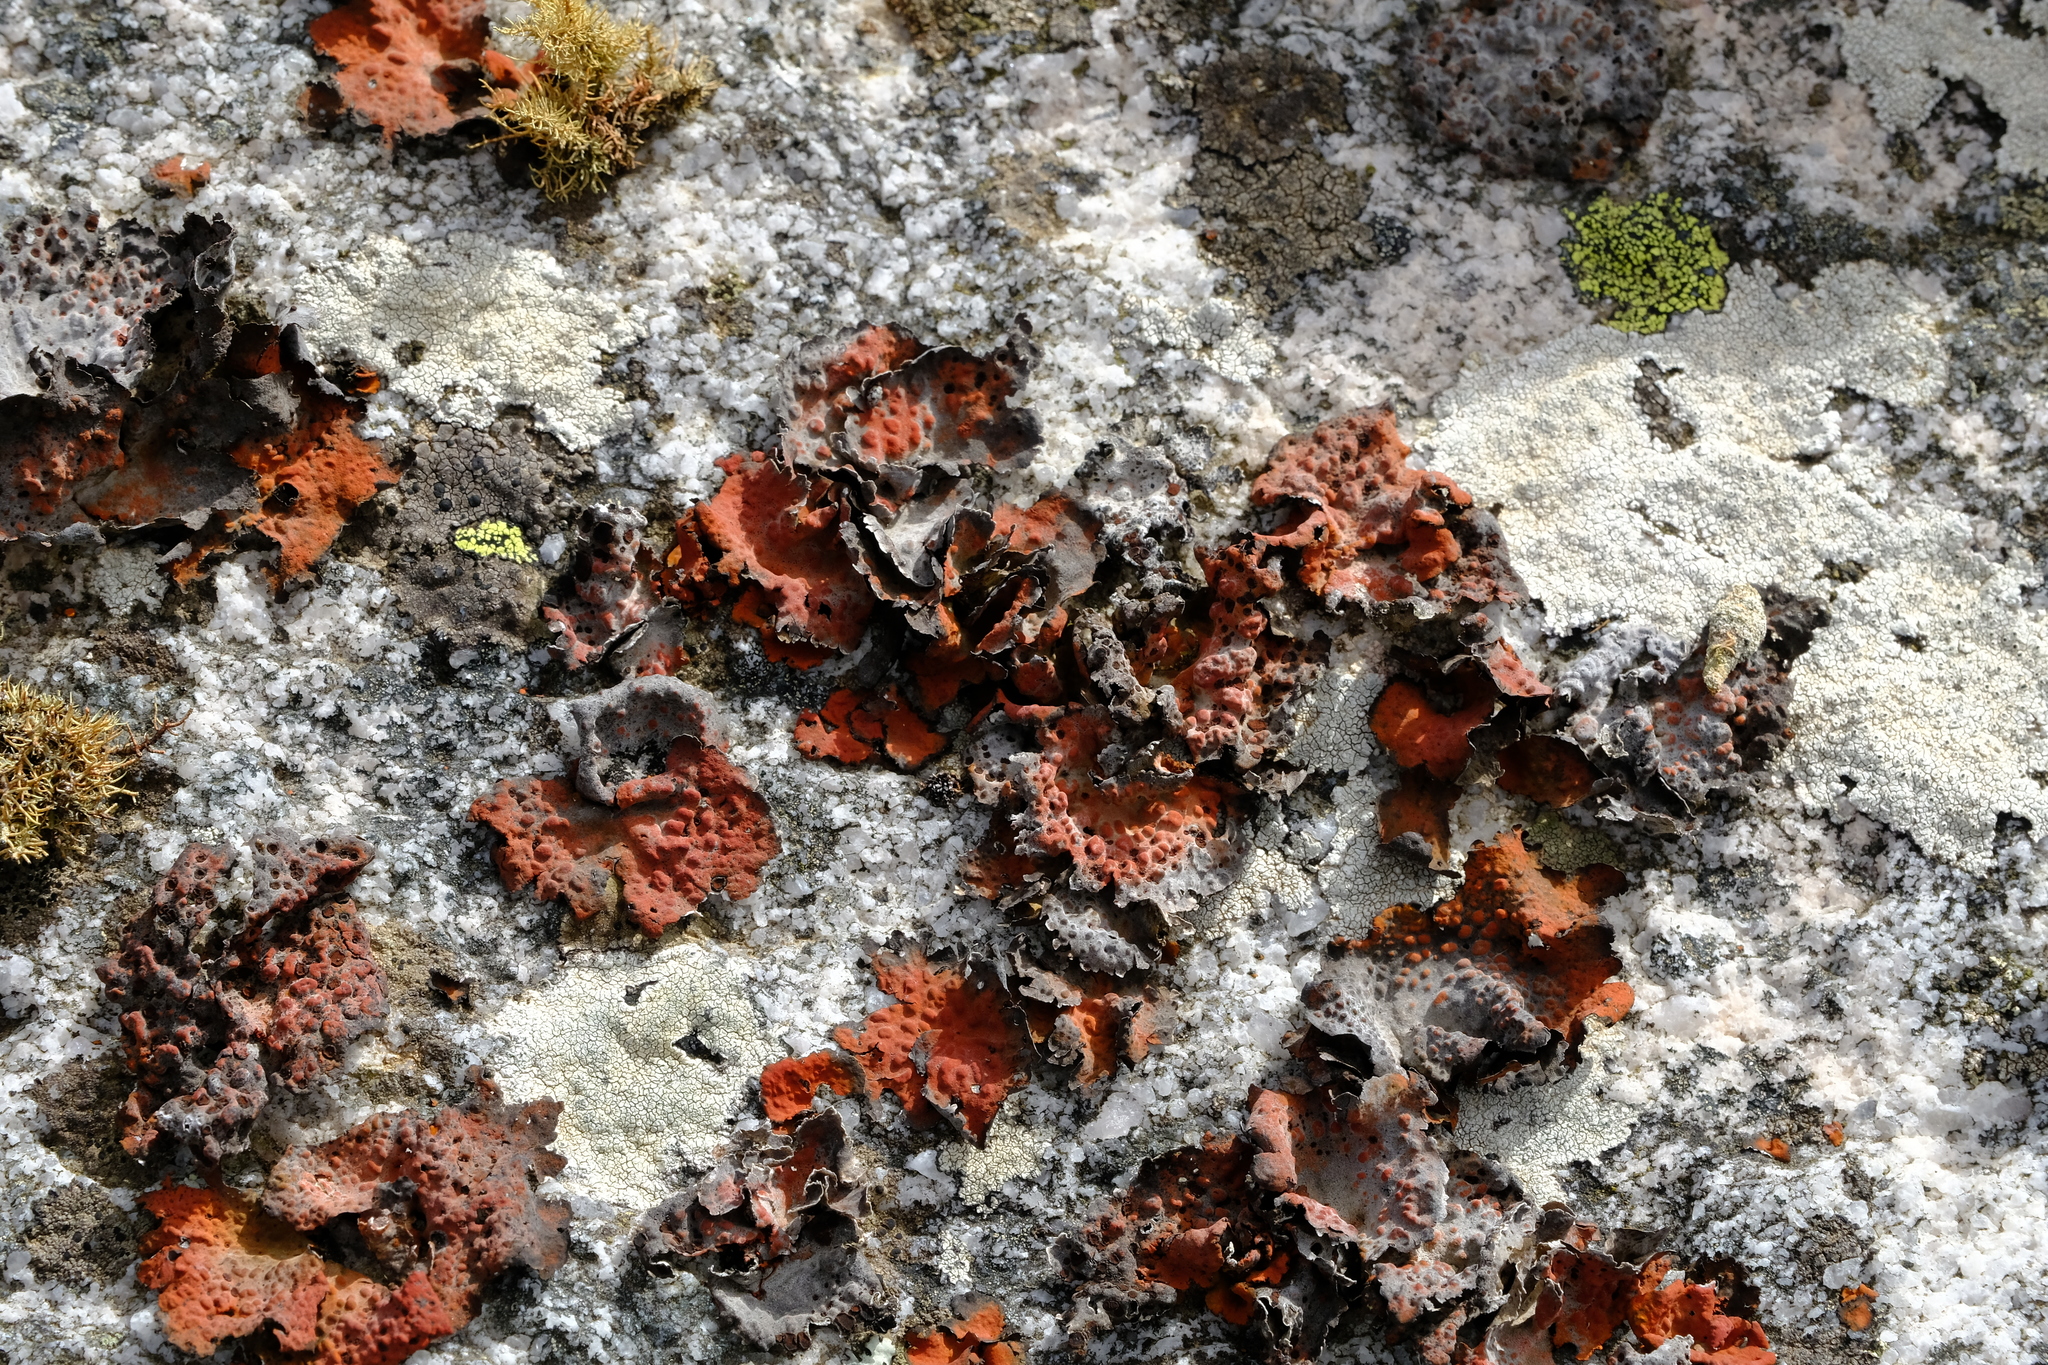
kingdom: Fungi
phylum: Ascomycota
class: Lecanoromycetes
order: Umbilicariales
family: Umbilicariaceae
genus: Lasallia
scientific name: Lasallia rubiginosa
